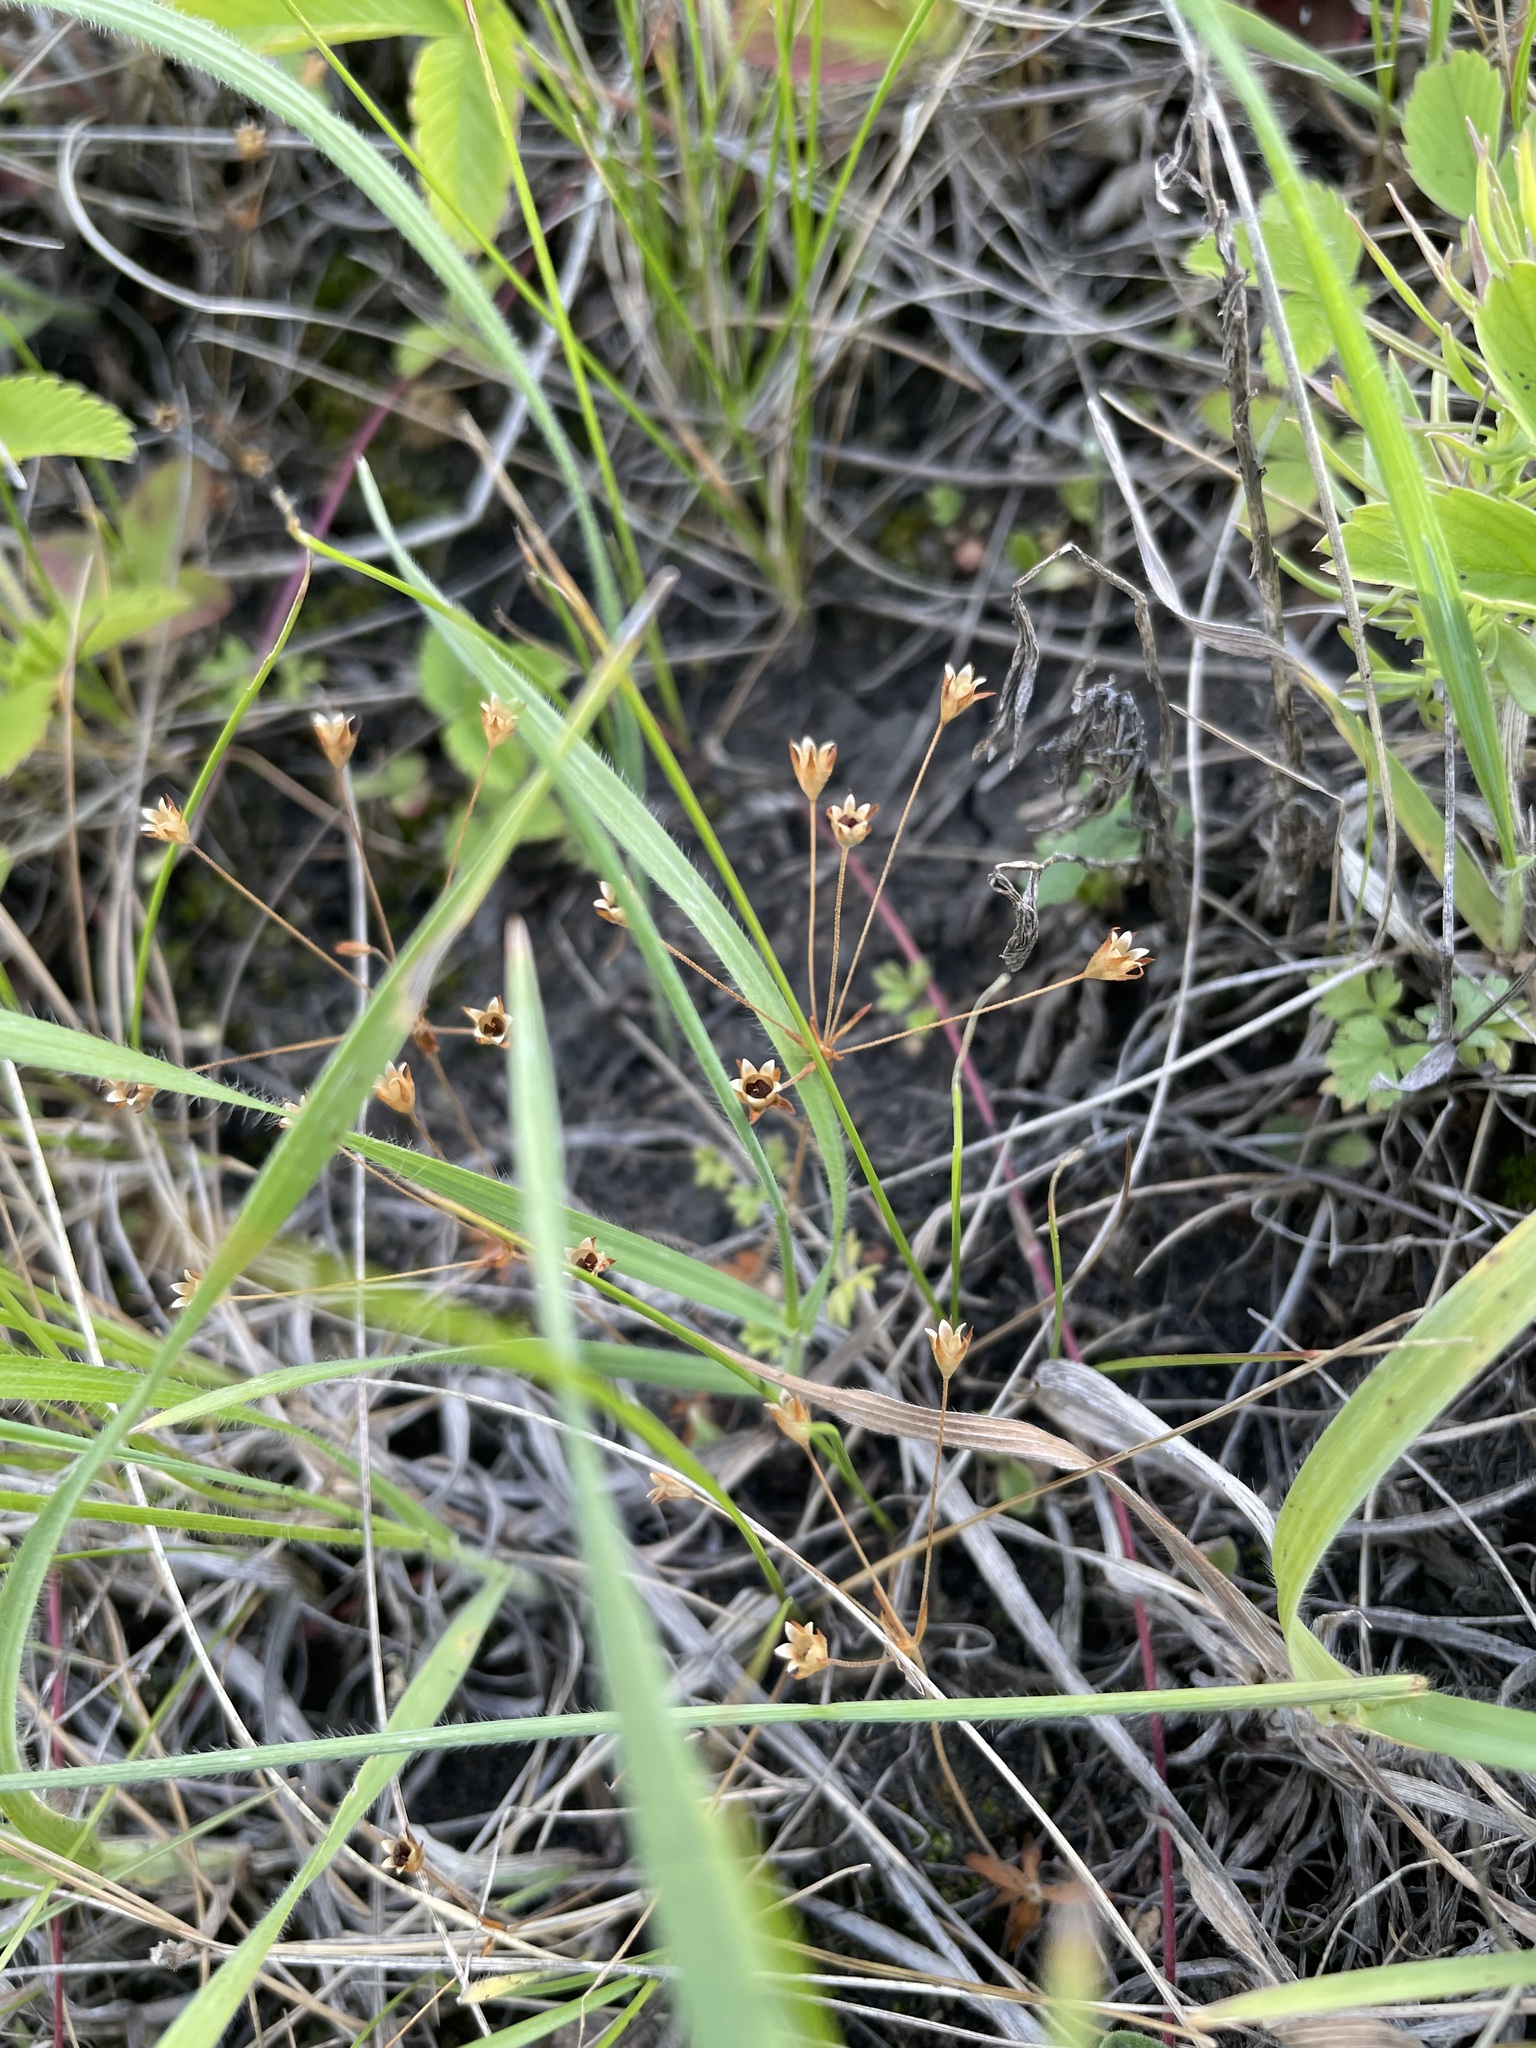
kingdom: Plantae
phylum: Tracheophyta
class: Magnoliopsida
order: Ericales
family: Primulaceae
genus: Androsace
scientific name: Androsace elongata
